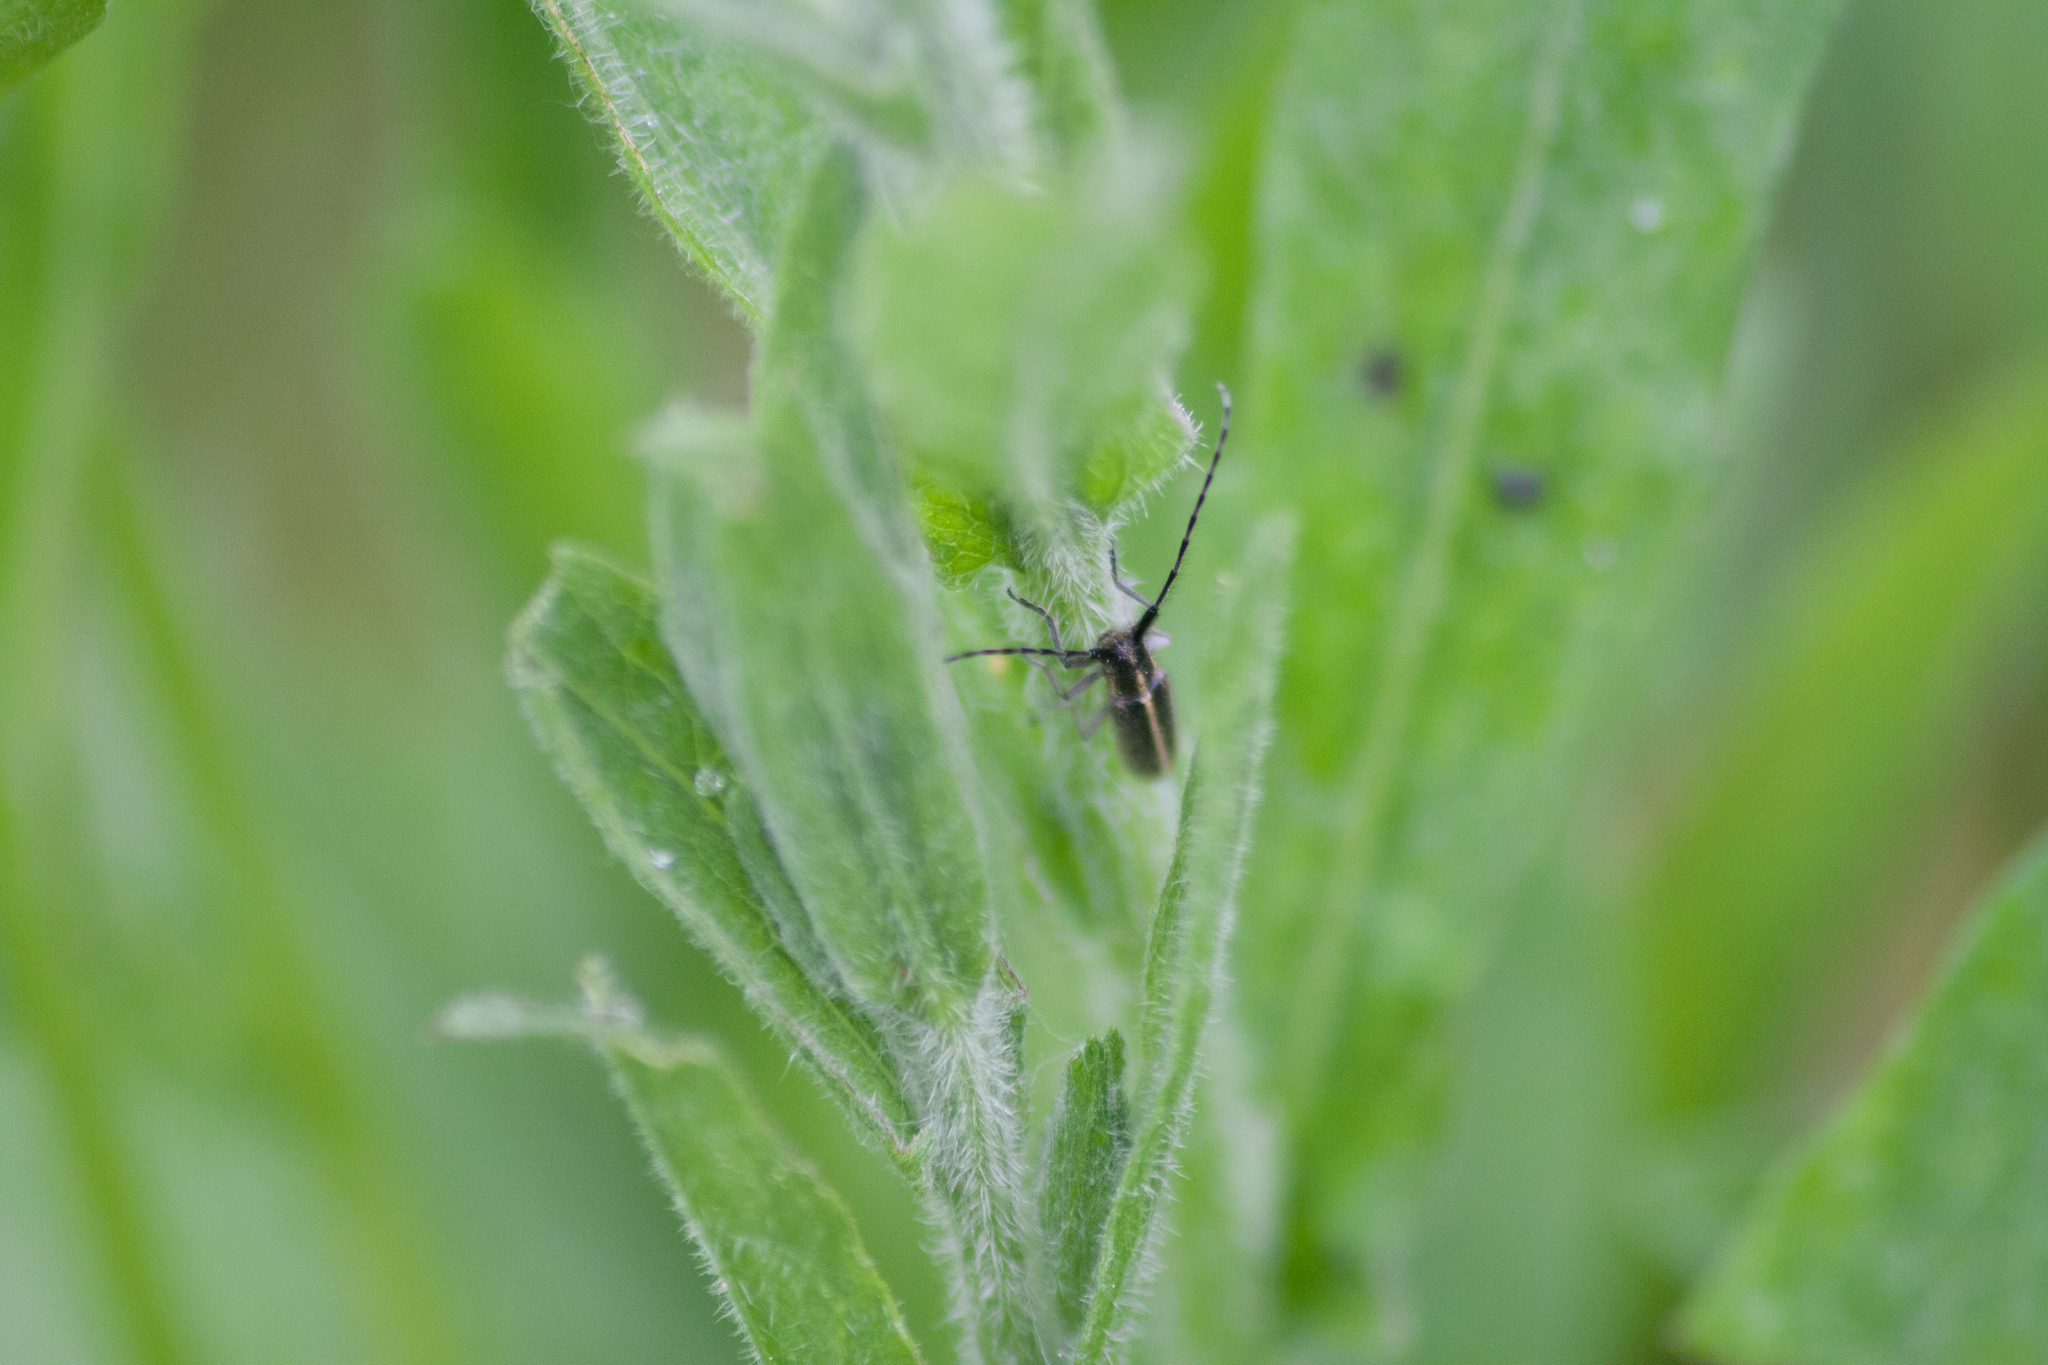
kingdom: Animalia
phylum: Arthropoda
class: Insecta
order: Coleoptera
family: Cerambycidae
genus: Agapanthia
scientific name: Agapanthia cardui
